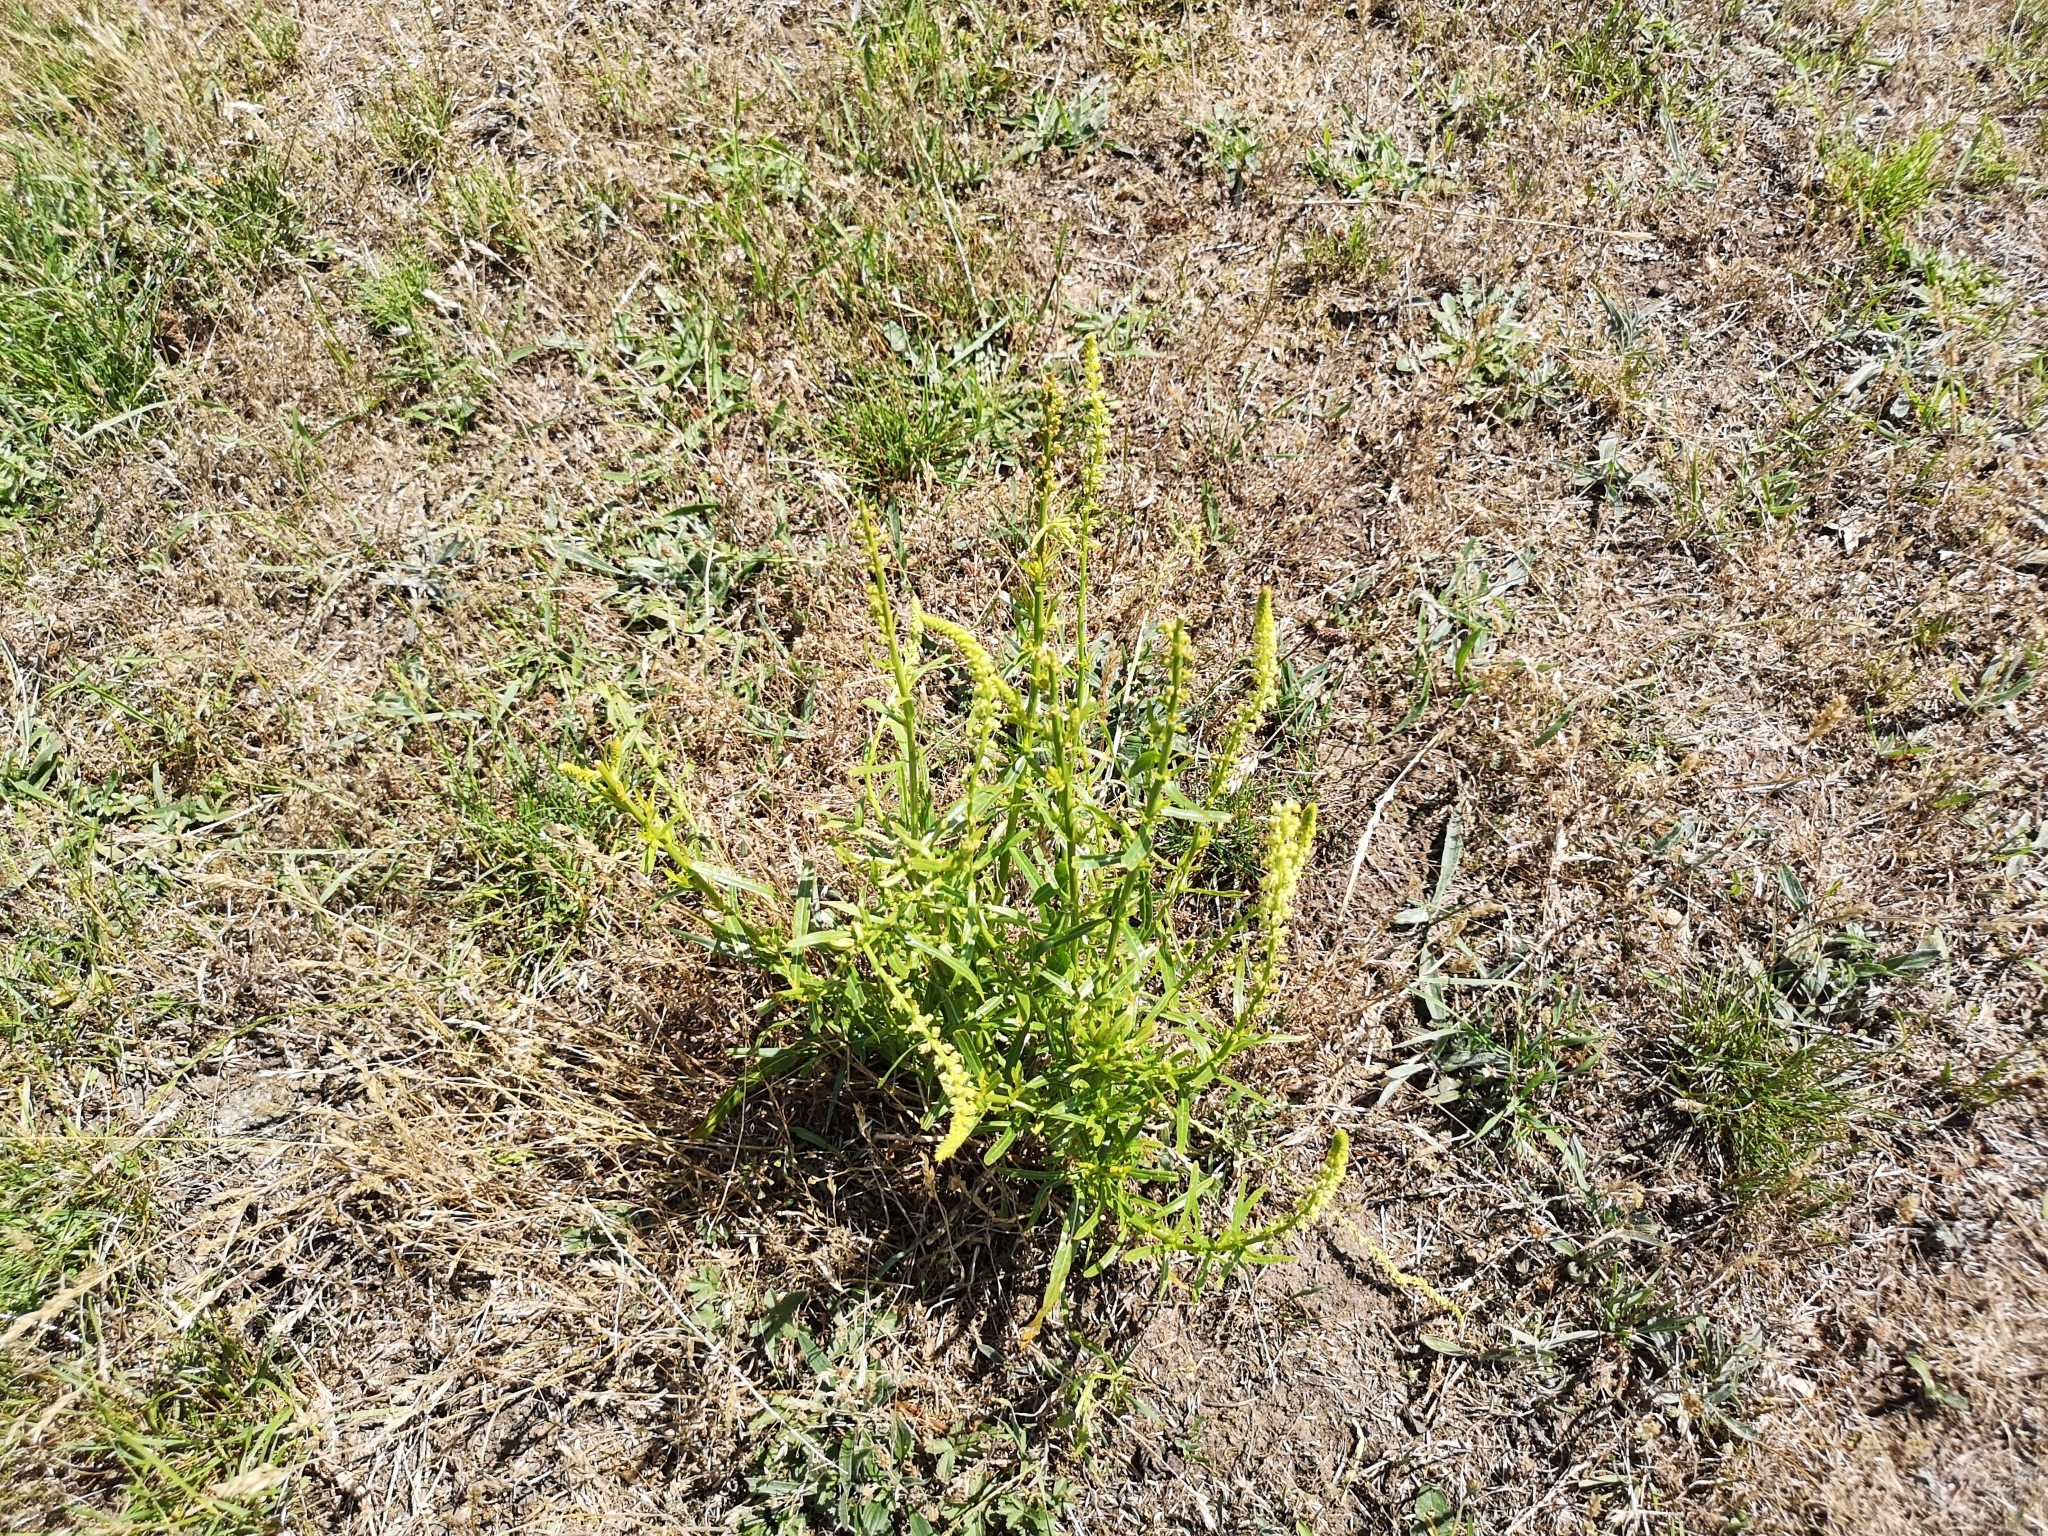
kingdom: Plantae
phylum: Tracheophyta
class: Magnoliopsida
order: Brassicales
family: Resedaceae
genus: Reseda
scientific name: Reseda luteola
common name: Weld
